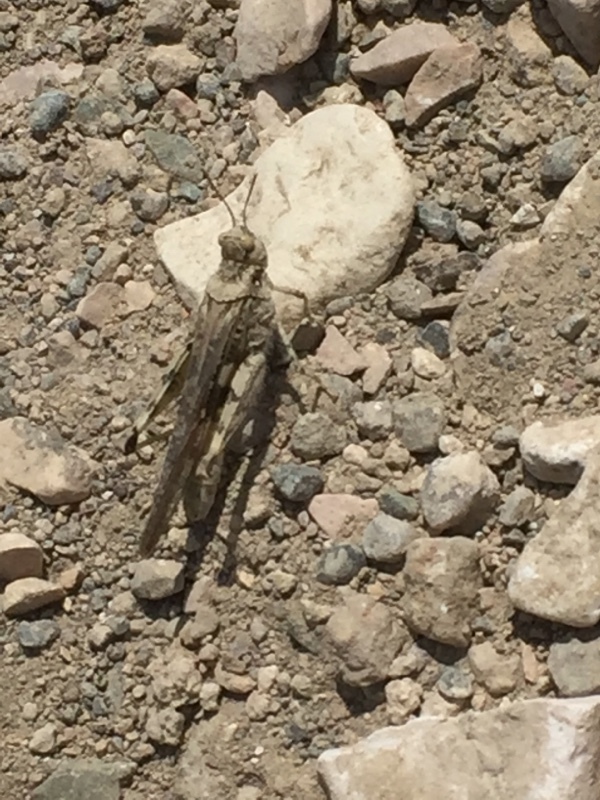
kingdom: Animalia
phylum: Arthropoda
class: Insecta
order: Orthoptera
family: Acrididae
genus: Acrotylus
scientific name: Acrotylus patruelis
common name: Slender burrowing grasshopper
